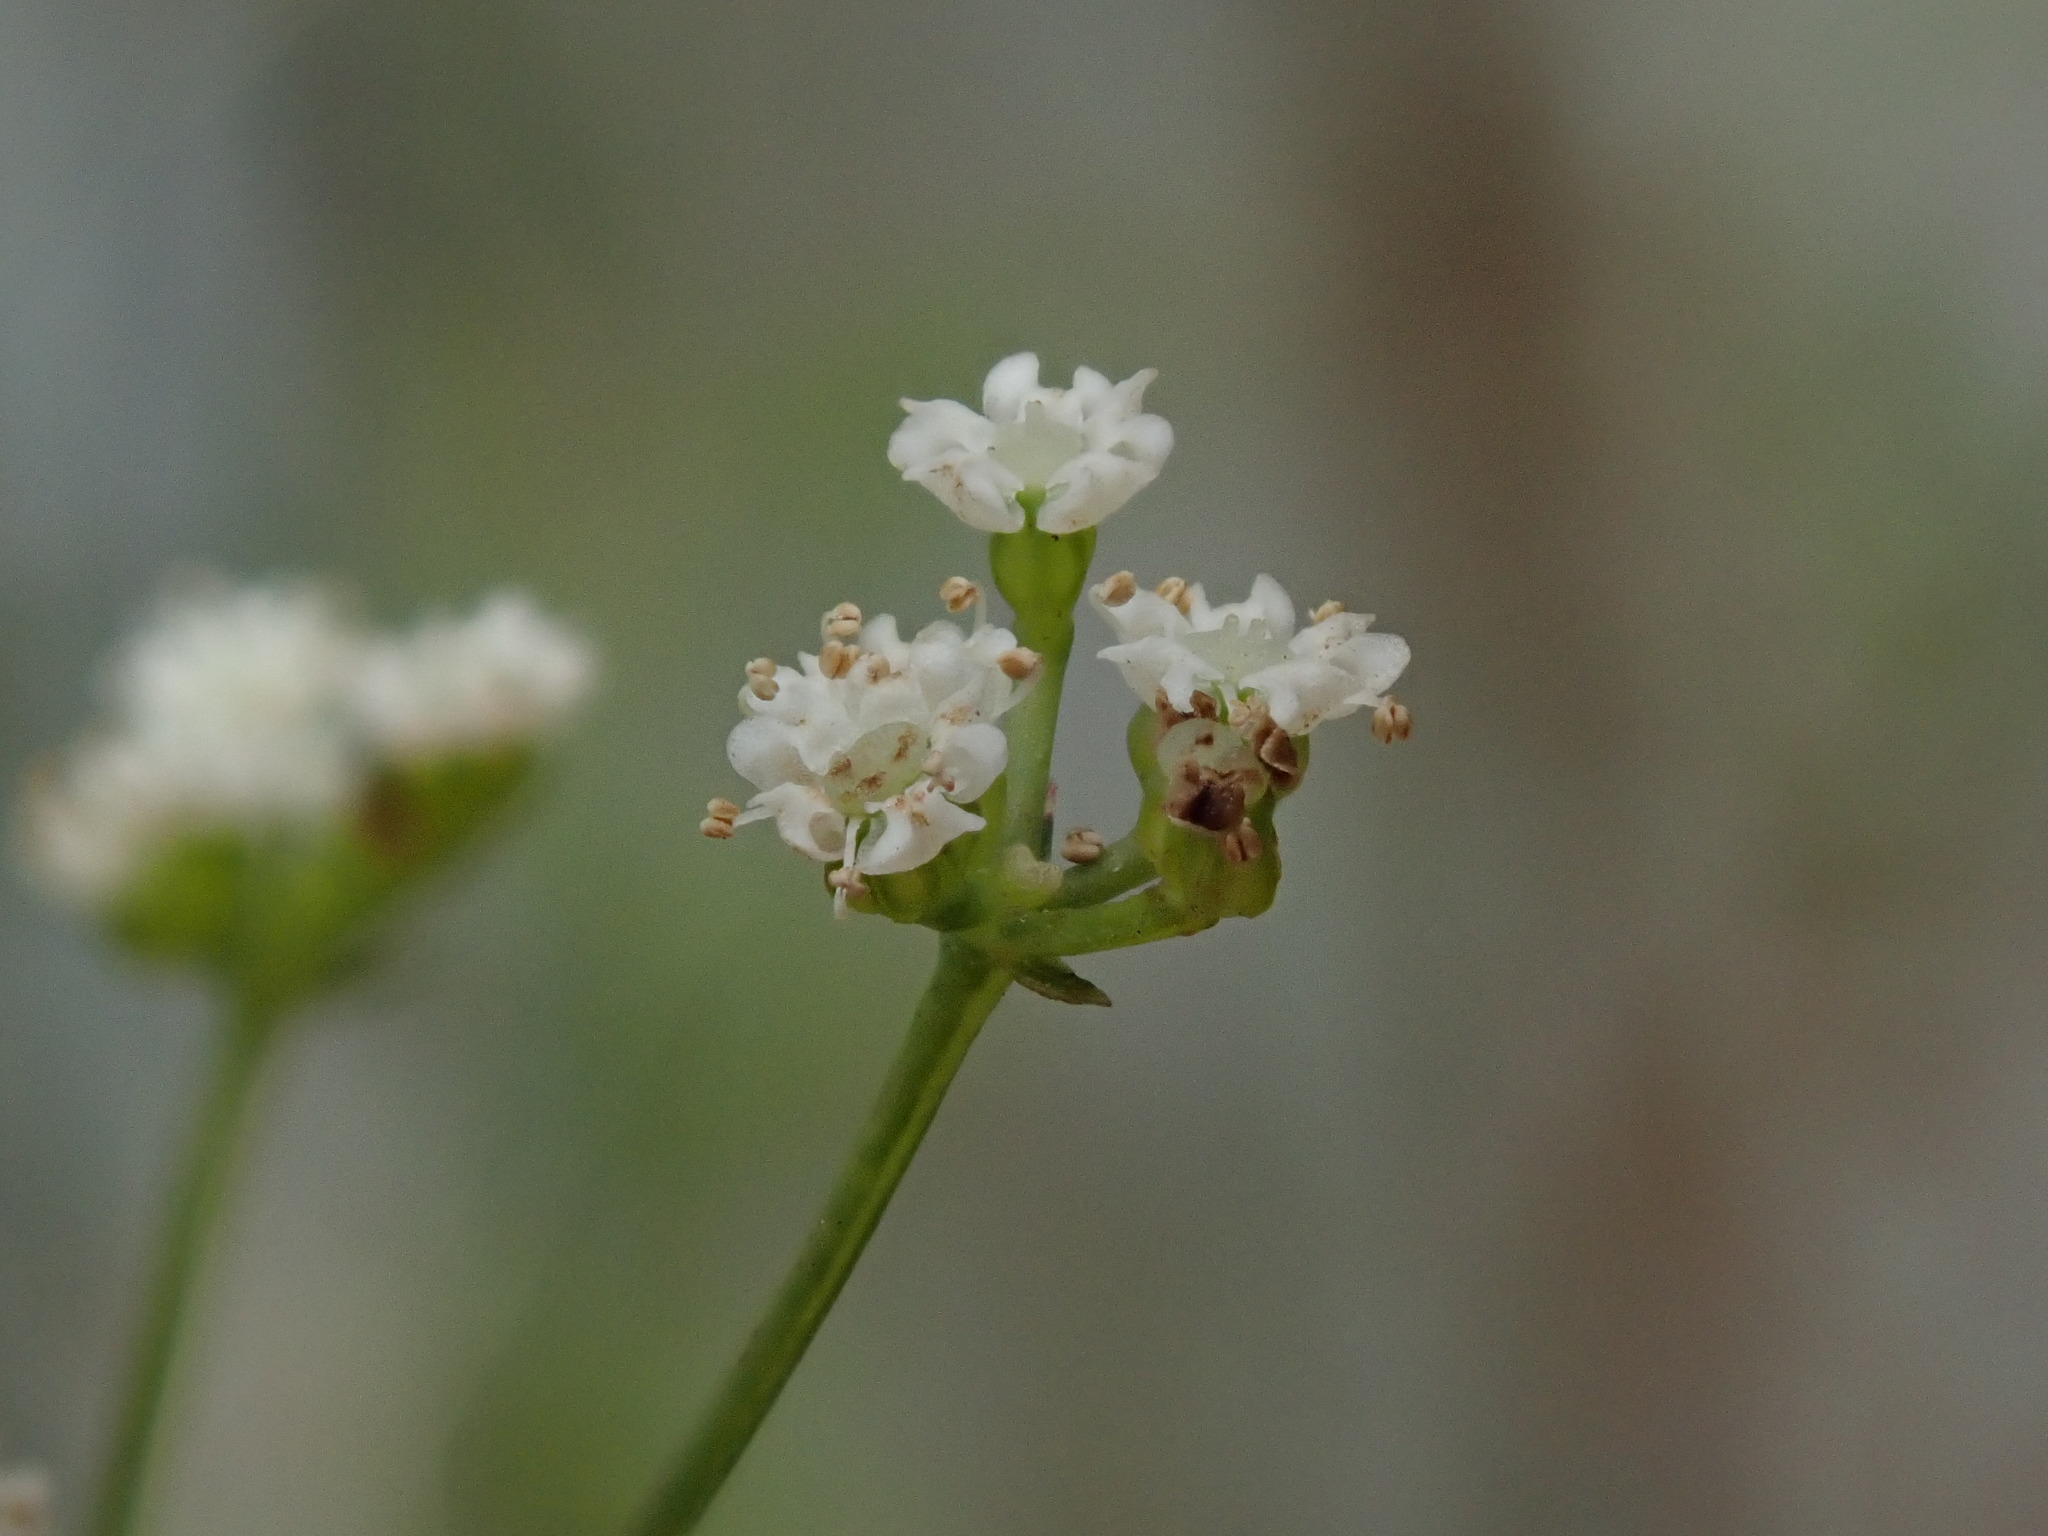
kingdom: Plantae
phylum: Tracheophyta
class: Magnoliopsida
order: Apiales
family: Apiaceae
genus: Sison
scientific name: Sison amomum
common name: Stone-parsley
